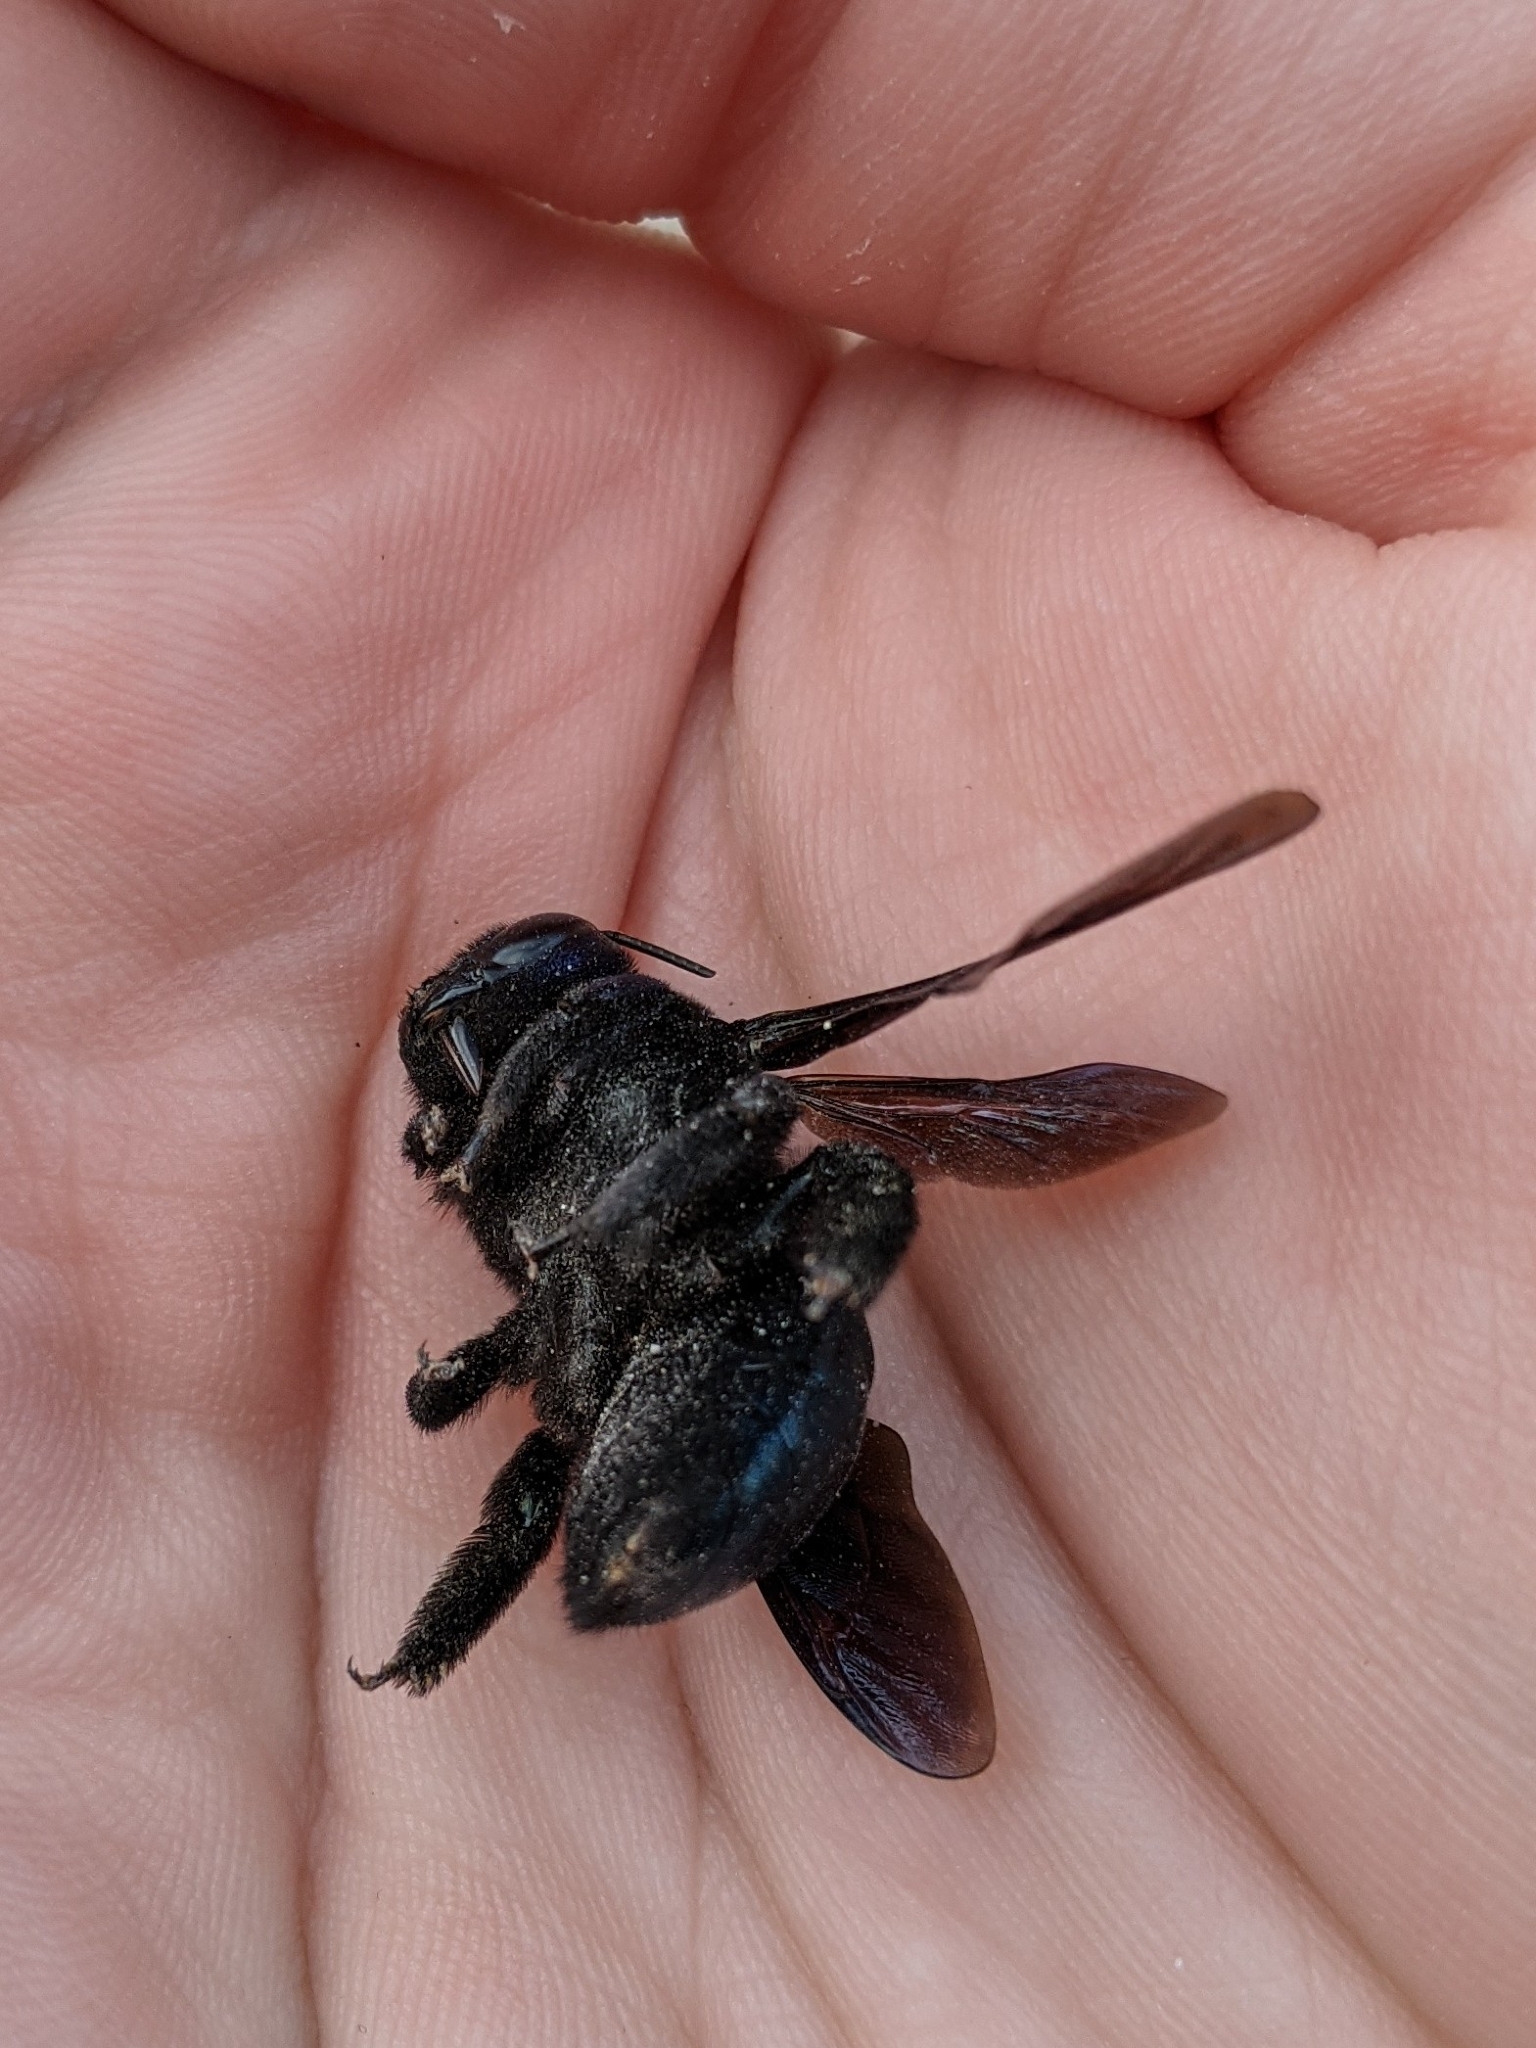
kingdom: Animalia
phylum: Arthropoda
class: Insecta
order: Hymenoptera
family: Apidae
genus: Xylocopa
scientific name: Xylocopa californica
